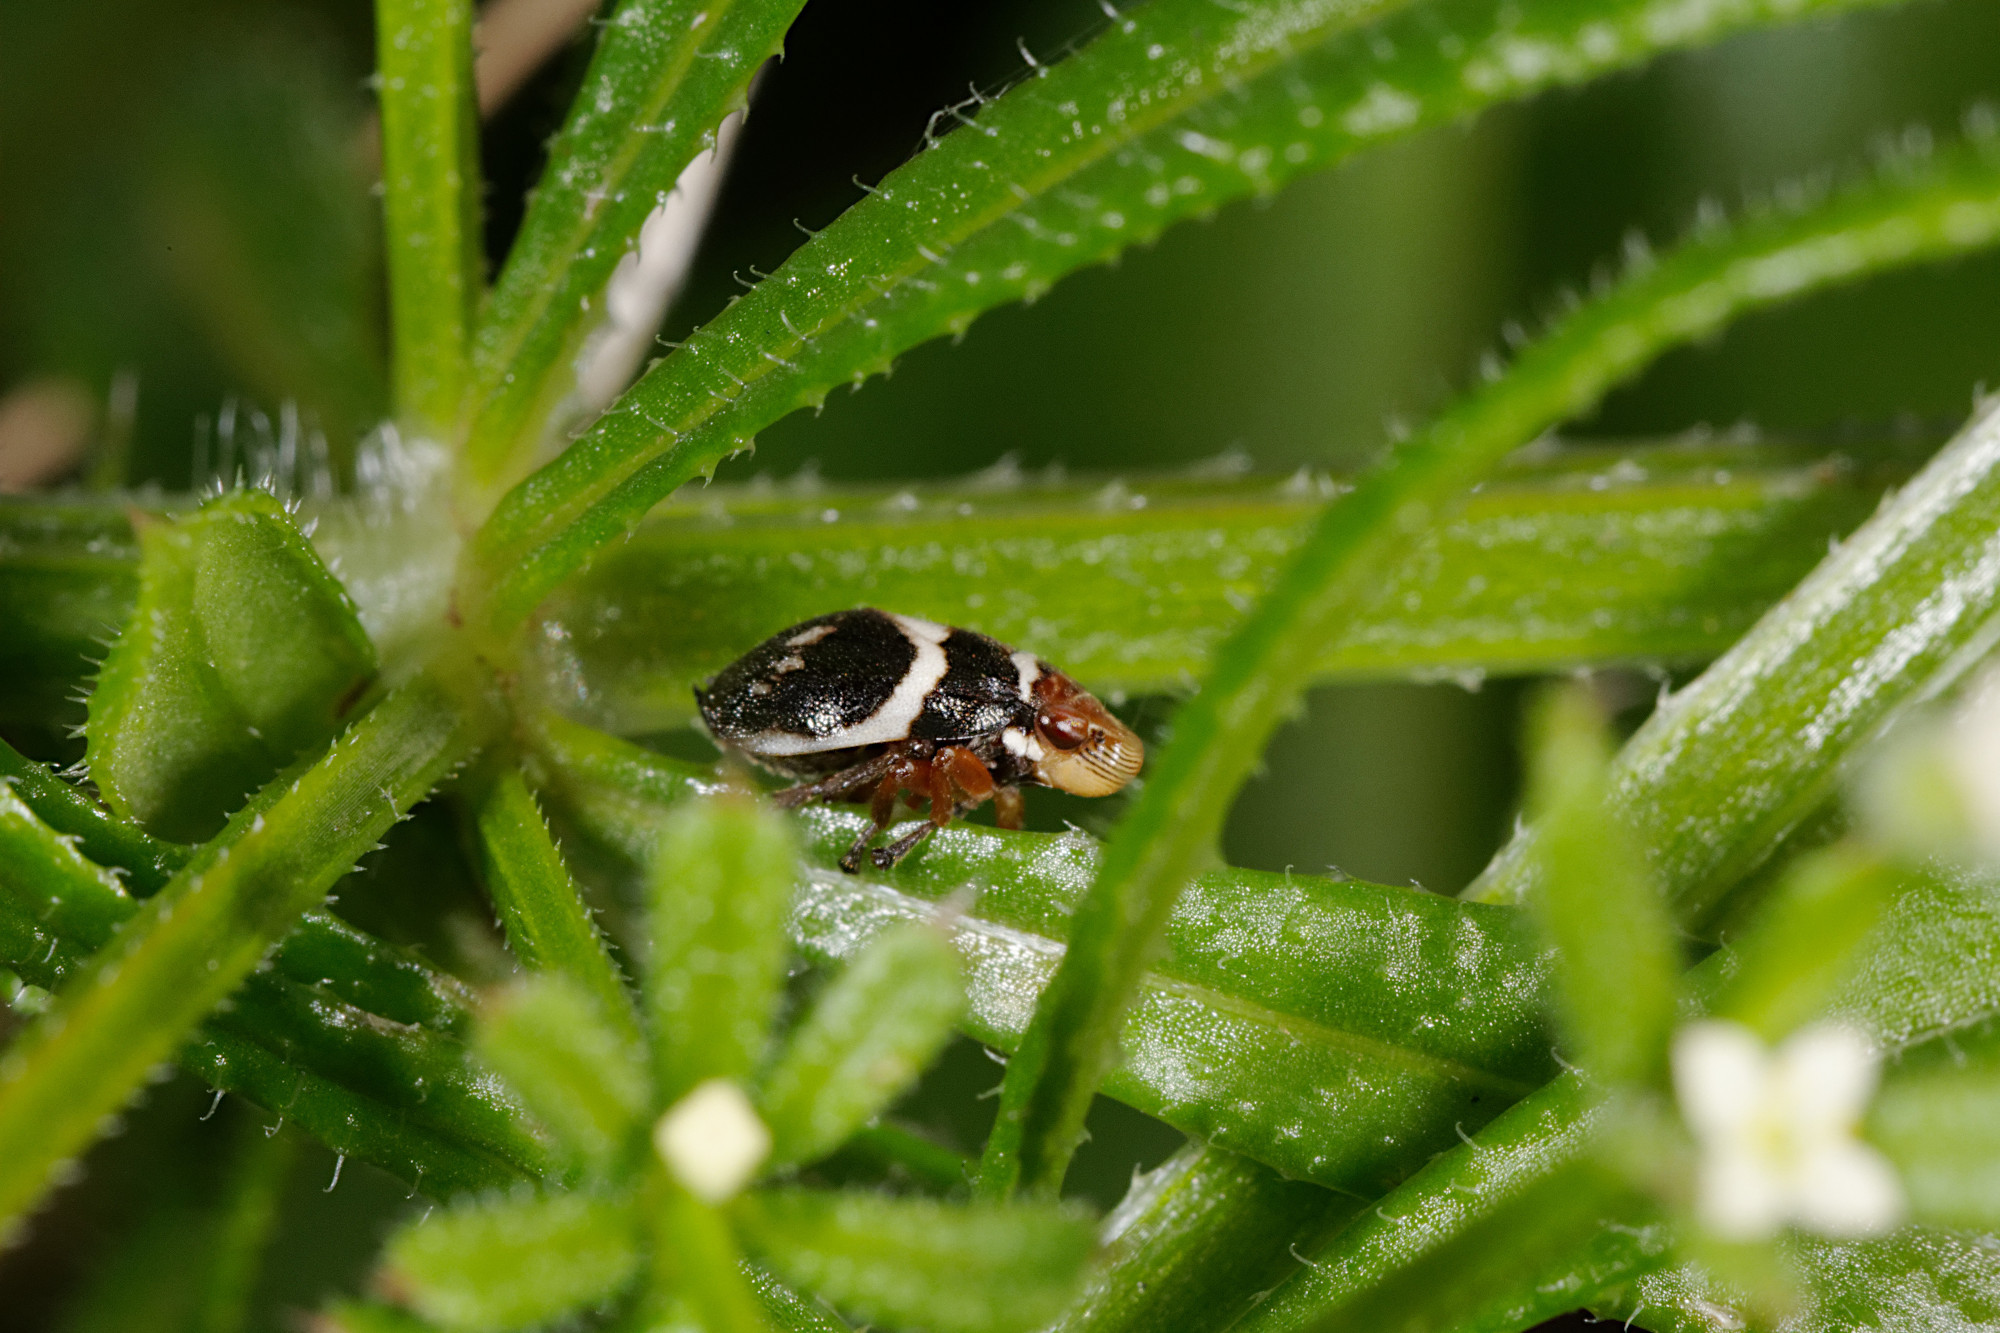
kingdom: Animalia
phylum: Arthropoda
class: Insecta
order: Hemiptera
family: Aphrophoridae
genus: Bathyllus
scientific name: Bathyllus albicinctus
